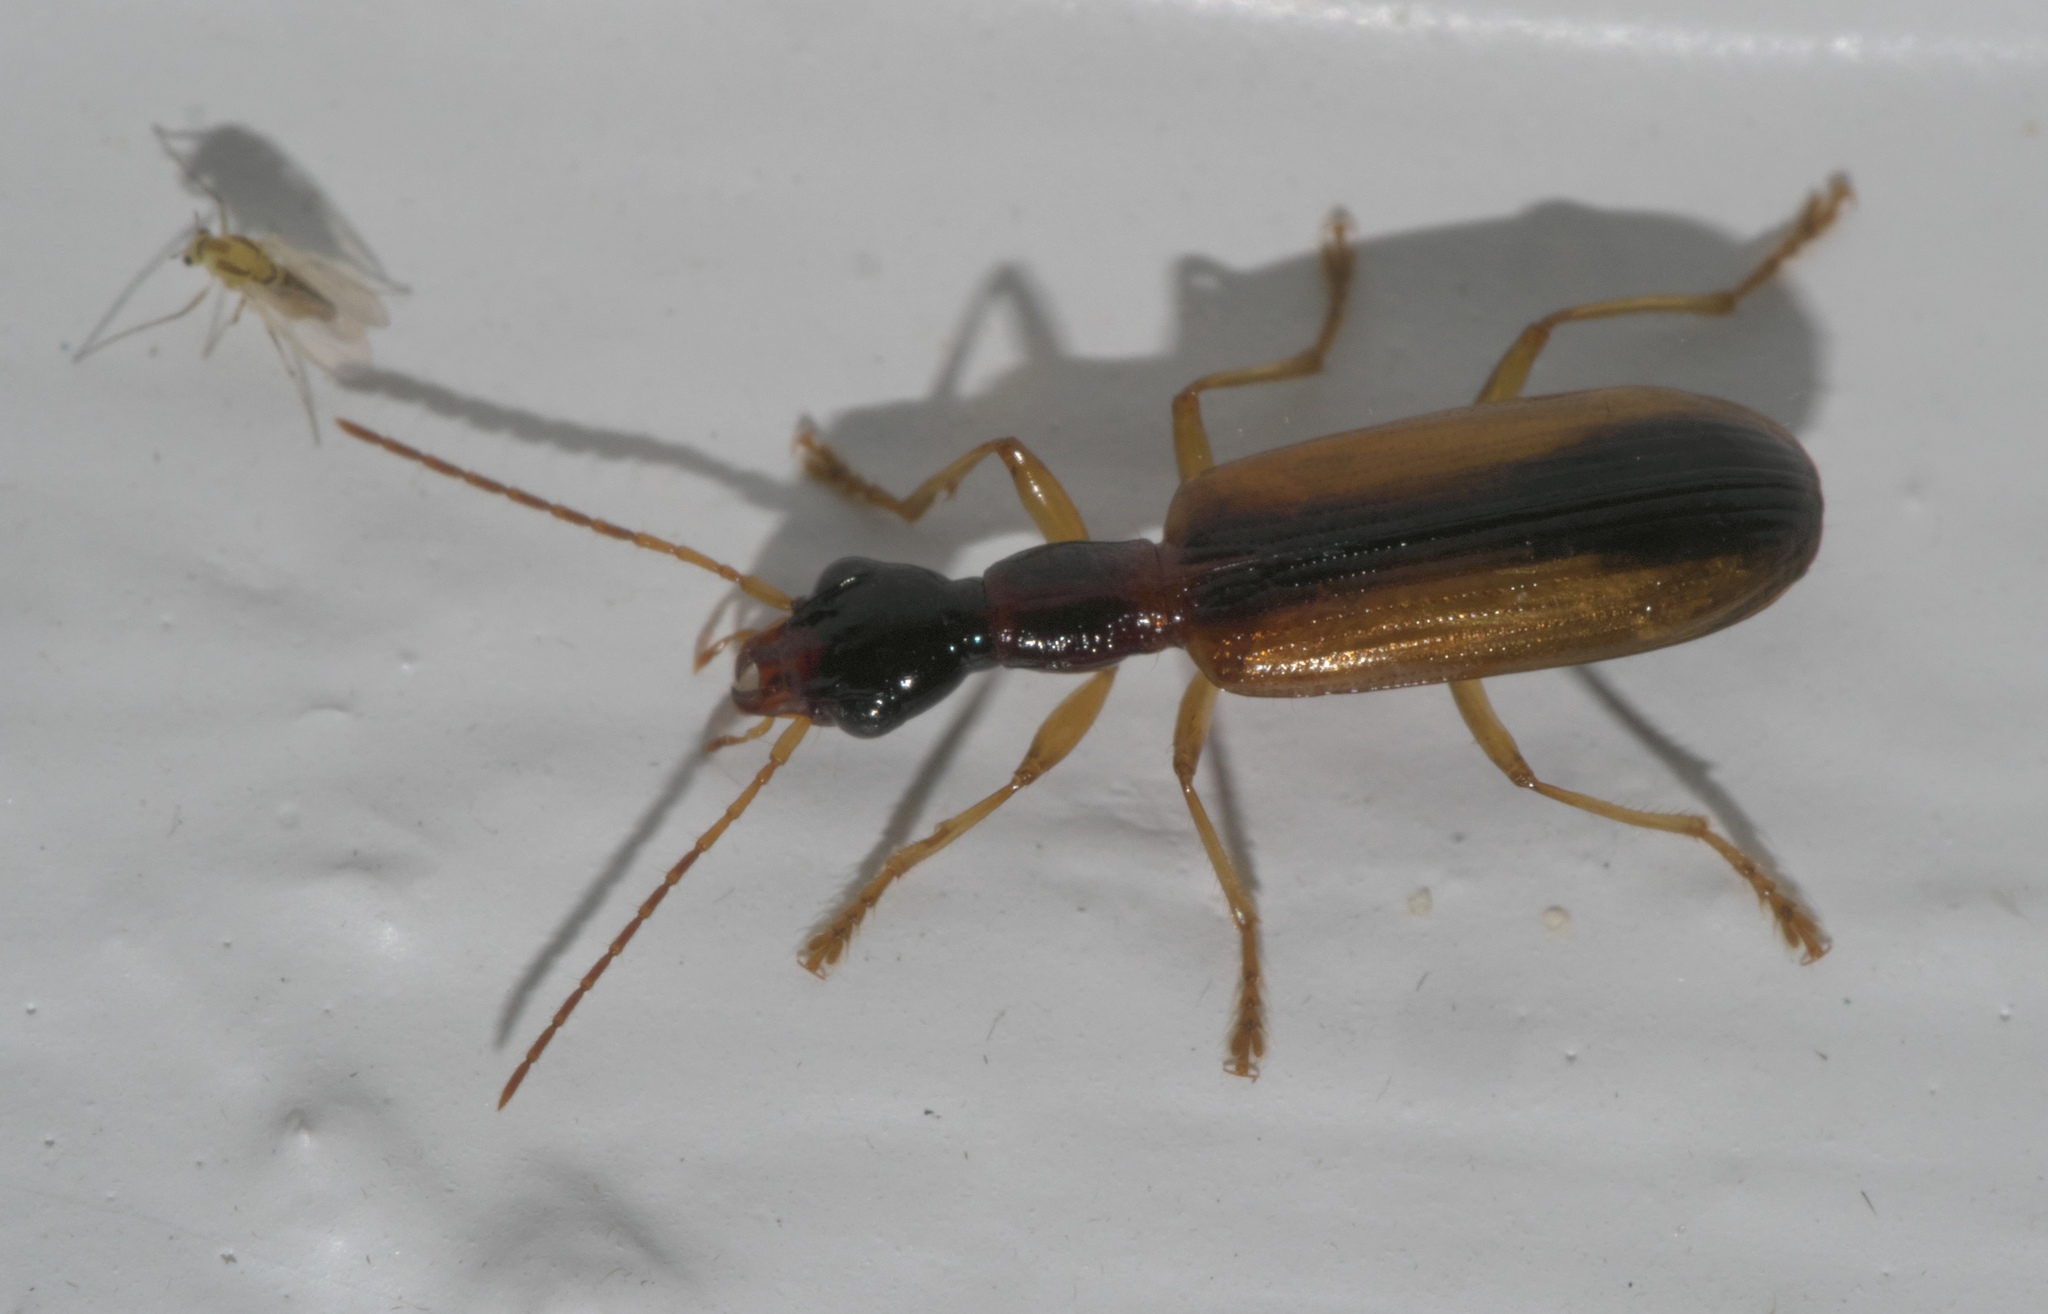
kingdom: Animalia
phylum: Arthropoda
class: Insecta
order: Coleoptera
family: Carabidae
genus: Leptotrachelus
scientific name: Leptotrachelus dorsalis
